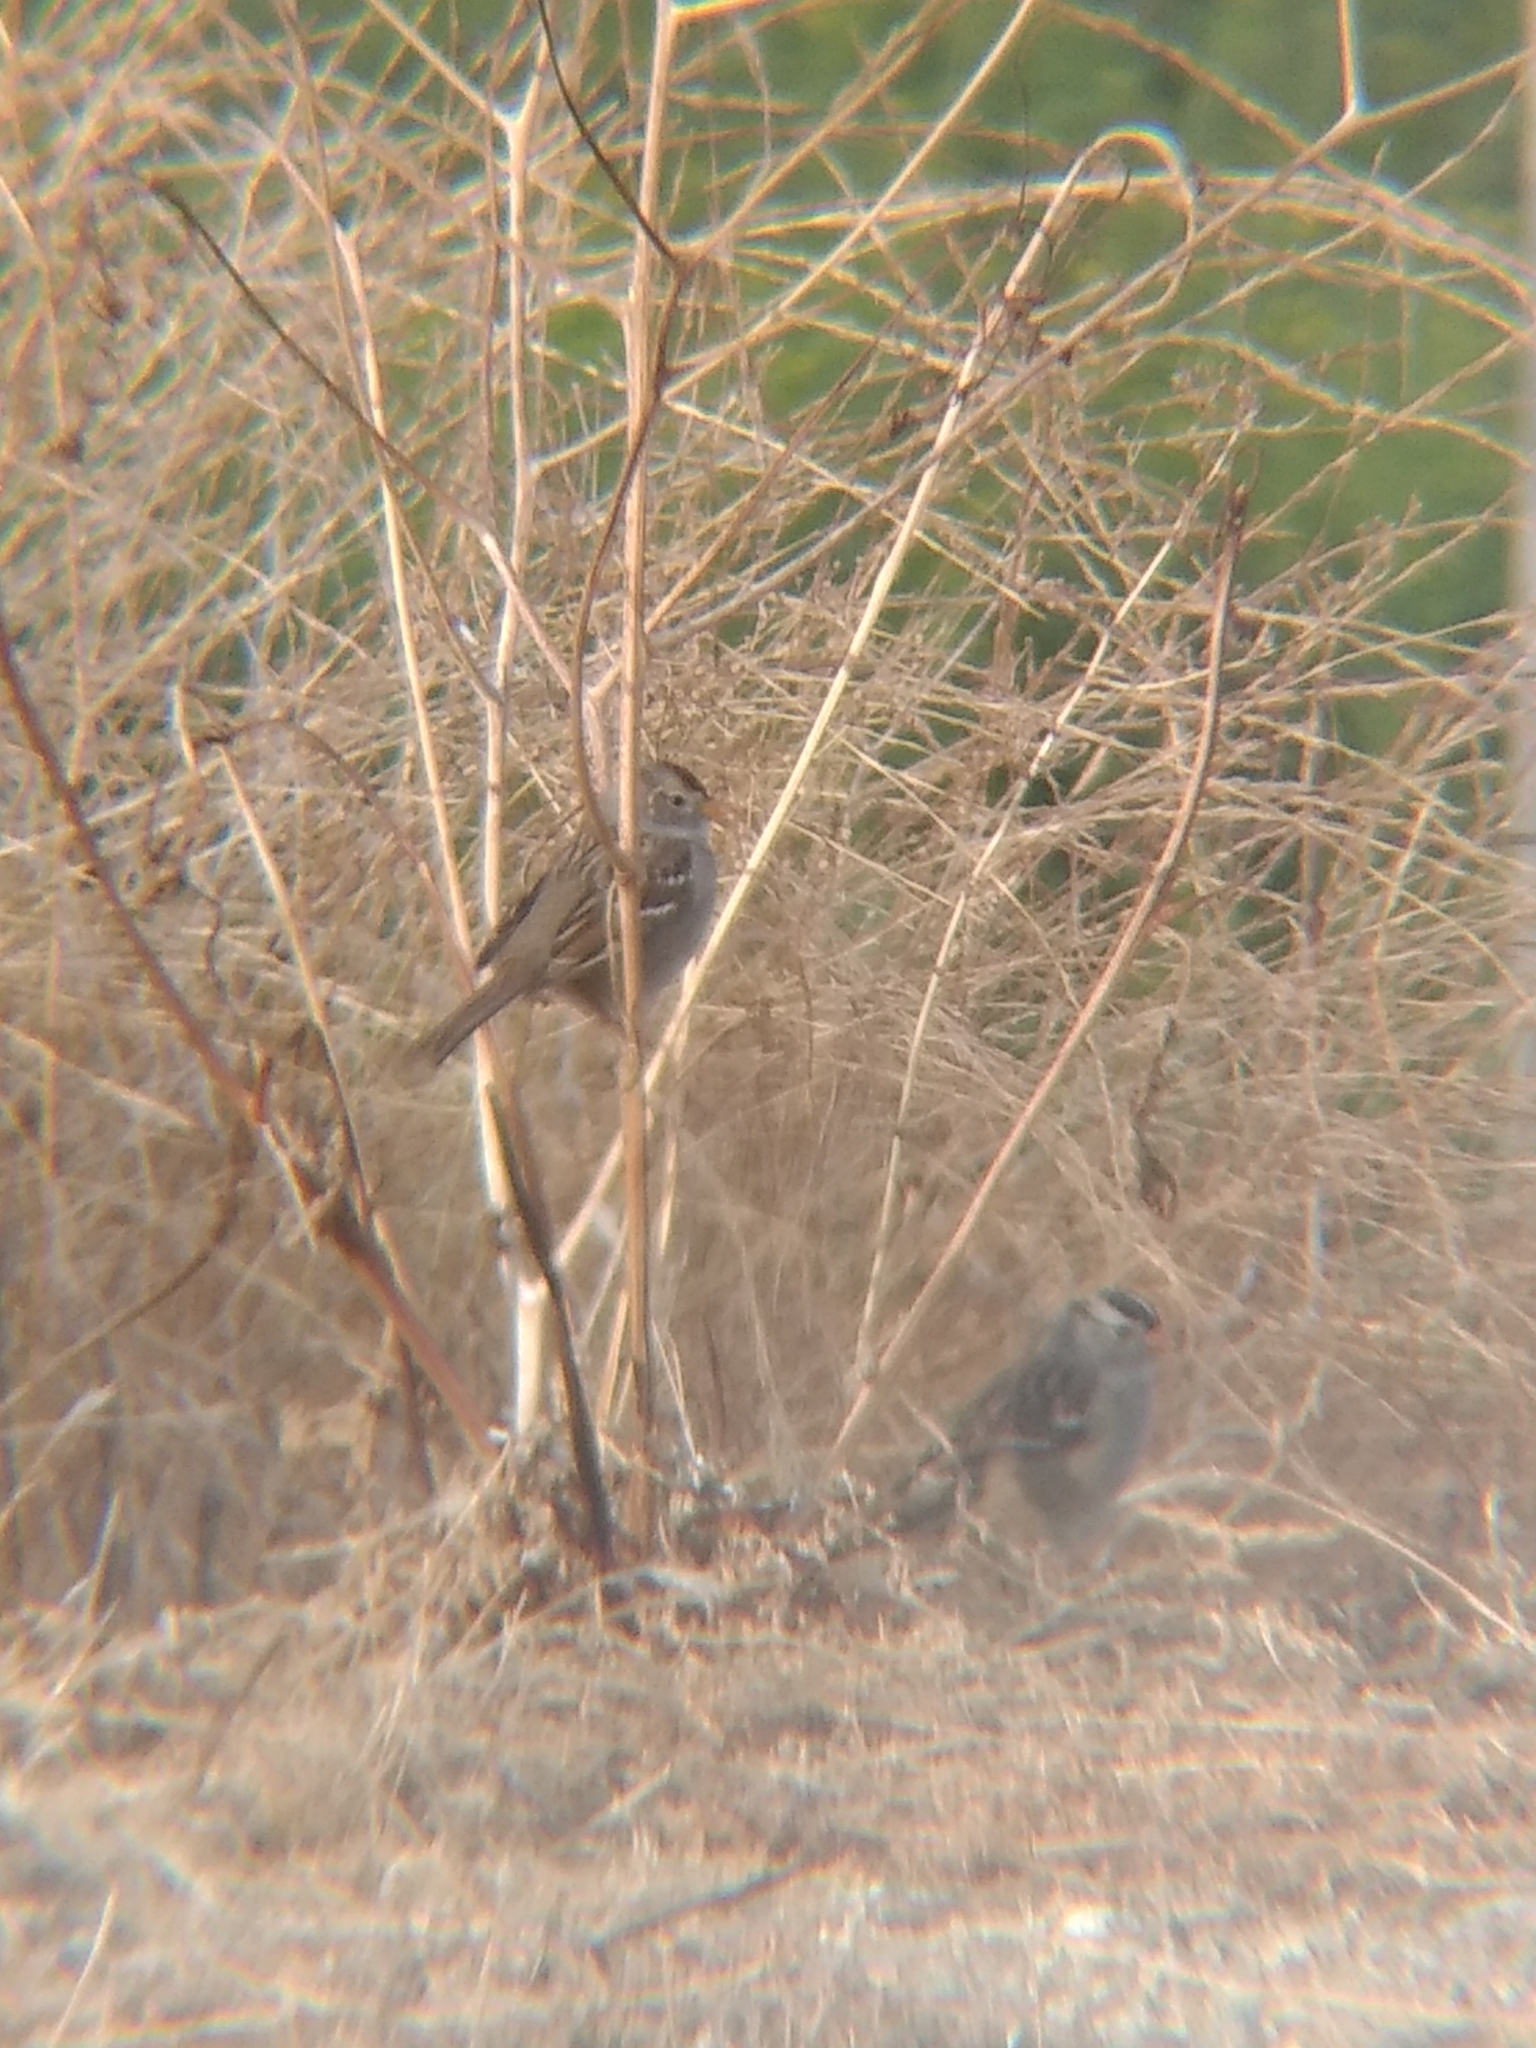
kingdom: Animalia
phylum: Chordata
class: Aves
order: Passeriformes
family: Passerellidae
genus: Zonotrichia
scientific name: Zonotrichia leucophrys
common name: White-crowned sparrow
